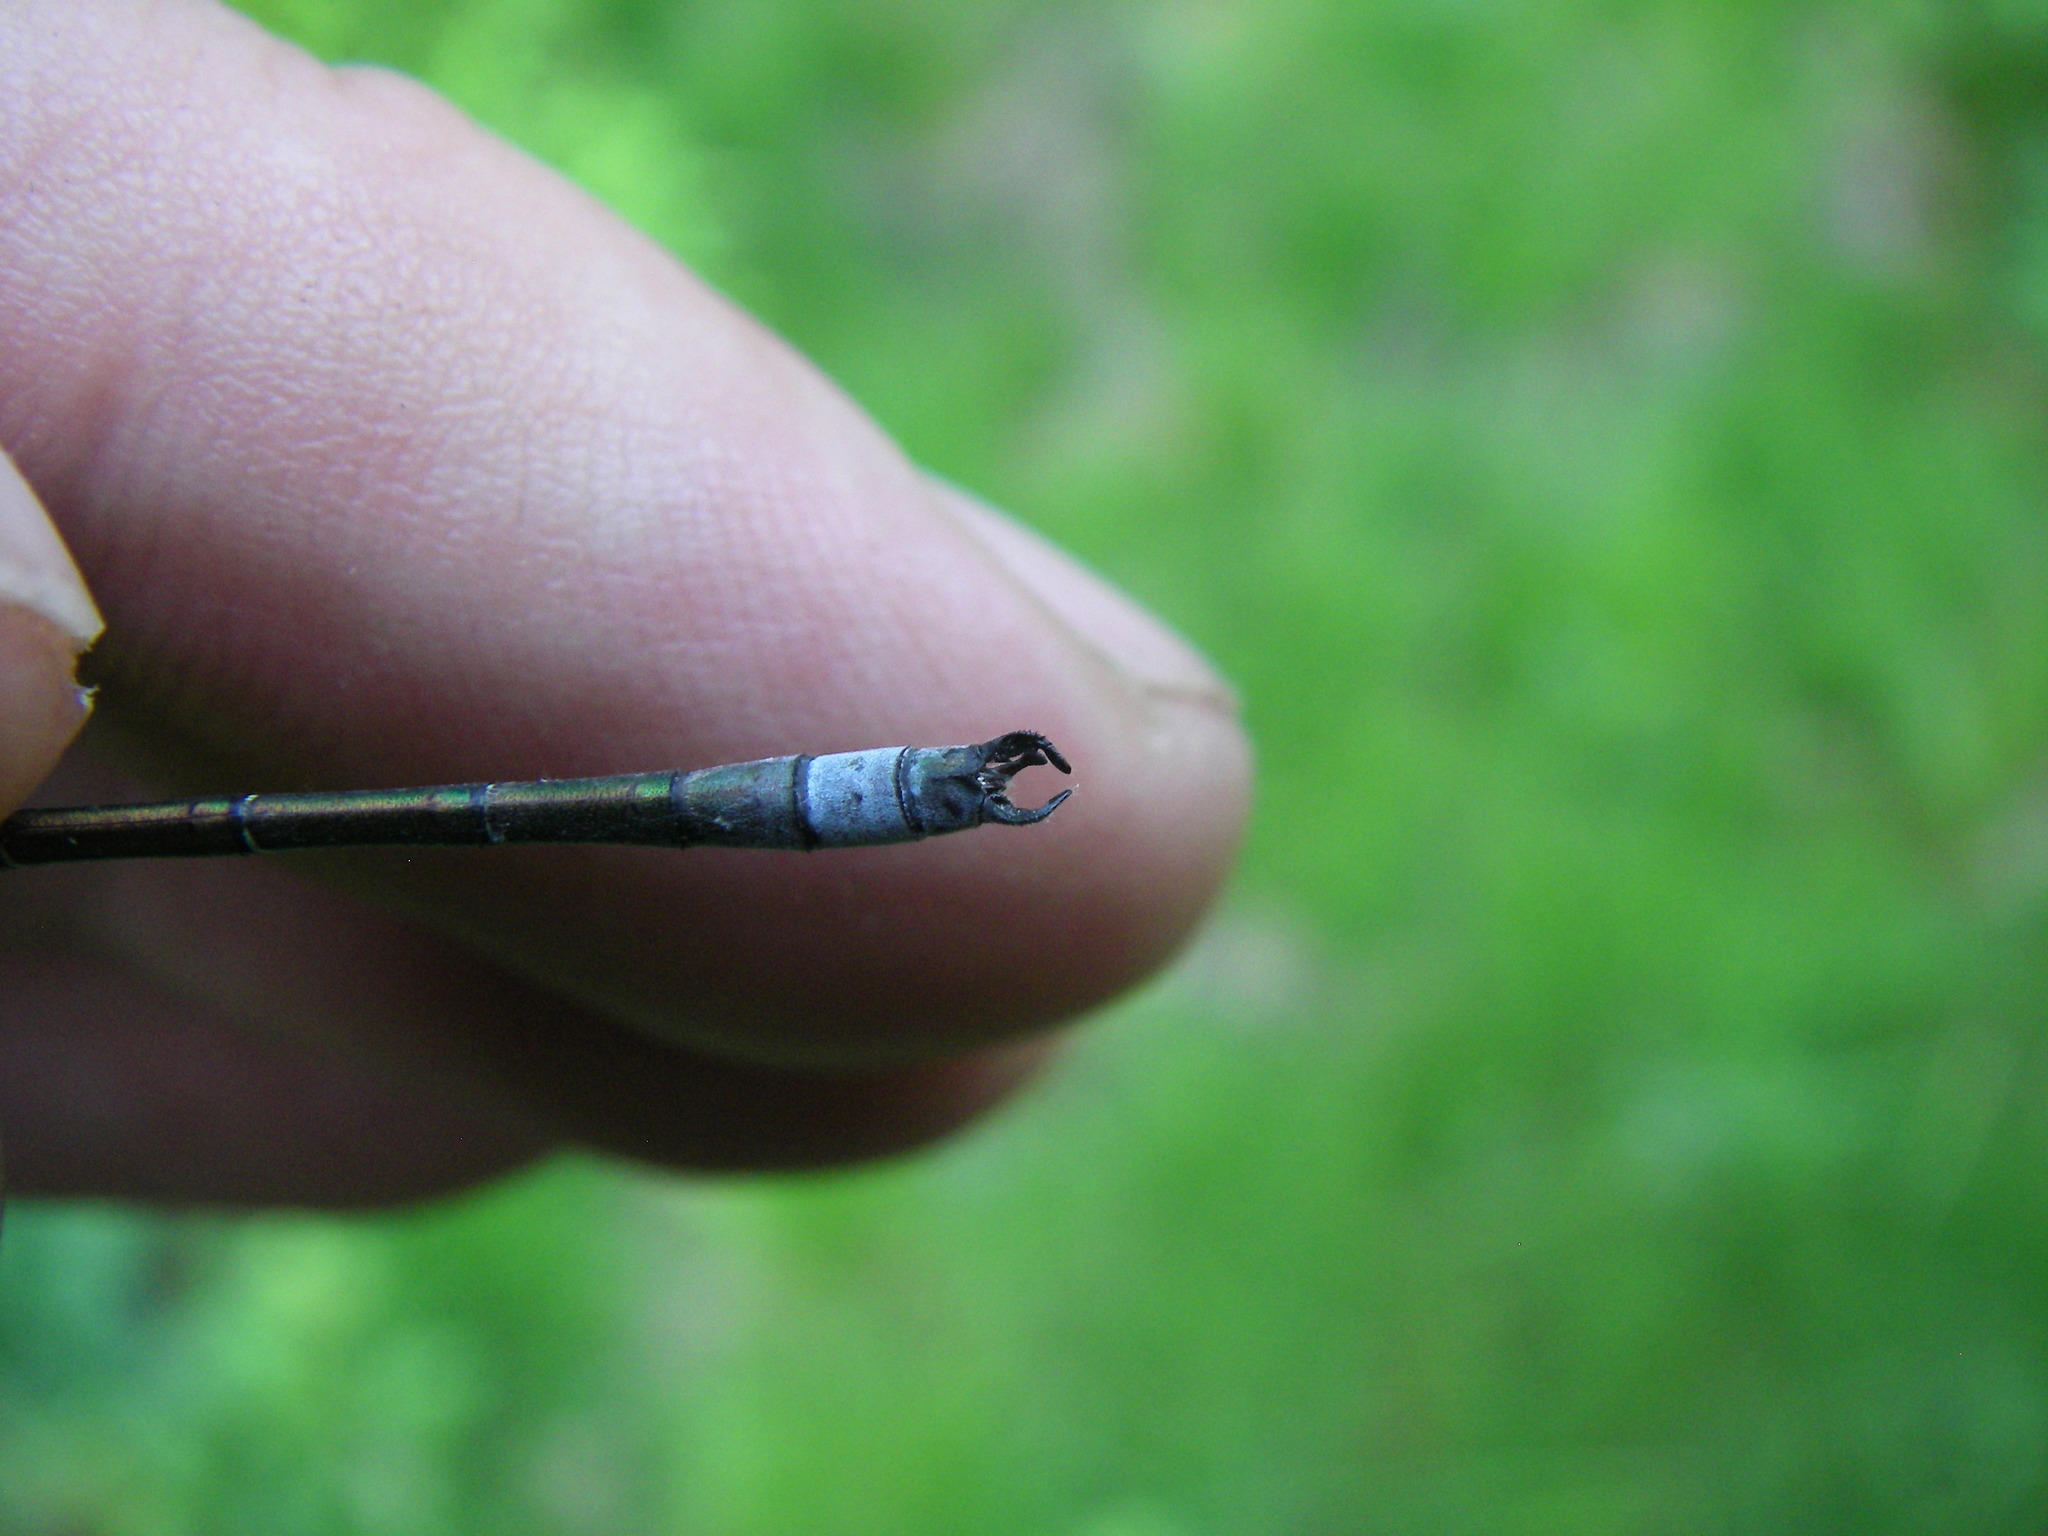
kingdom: Animalia
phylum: Arthropoda
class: Insecta
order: Odonata
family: Lestidae
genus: Lestes
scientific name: Lestes dryas
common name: Scarce emerald damselfly
